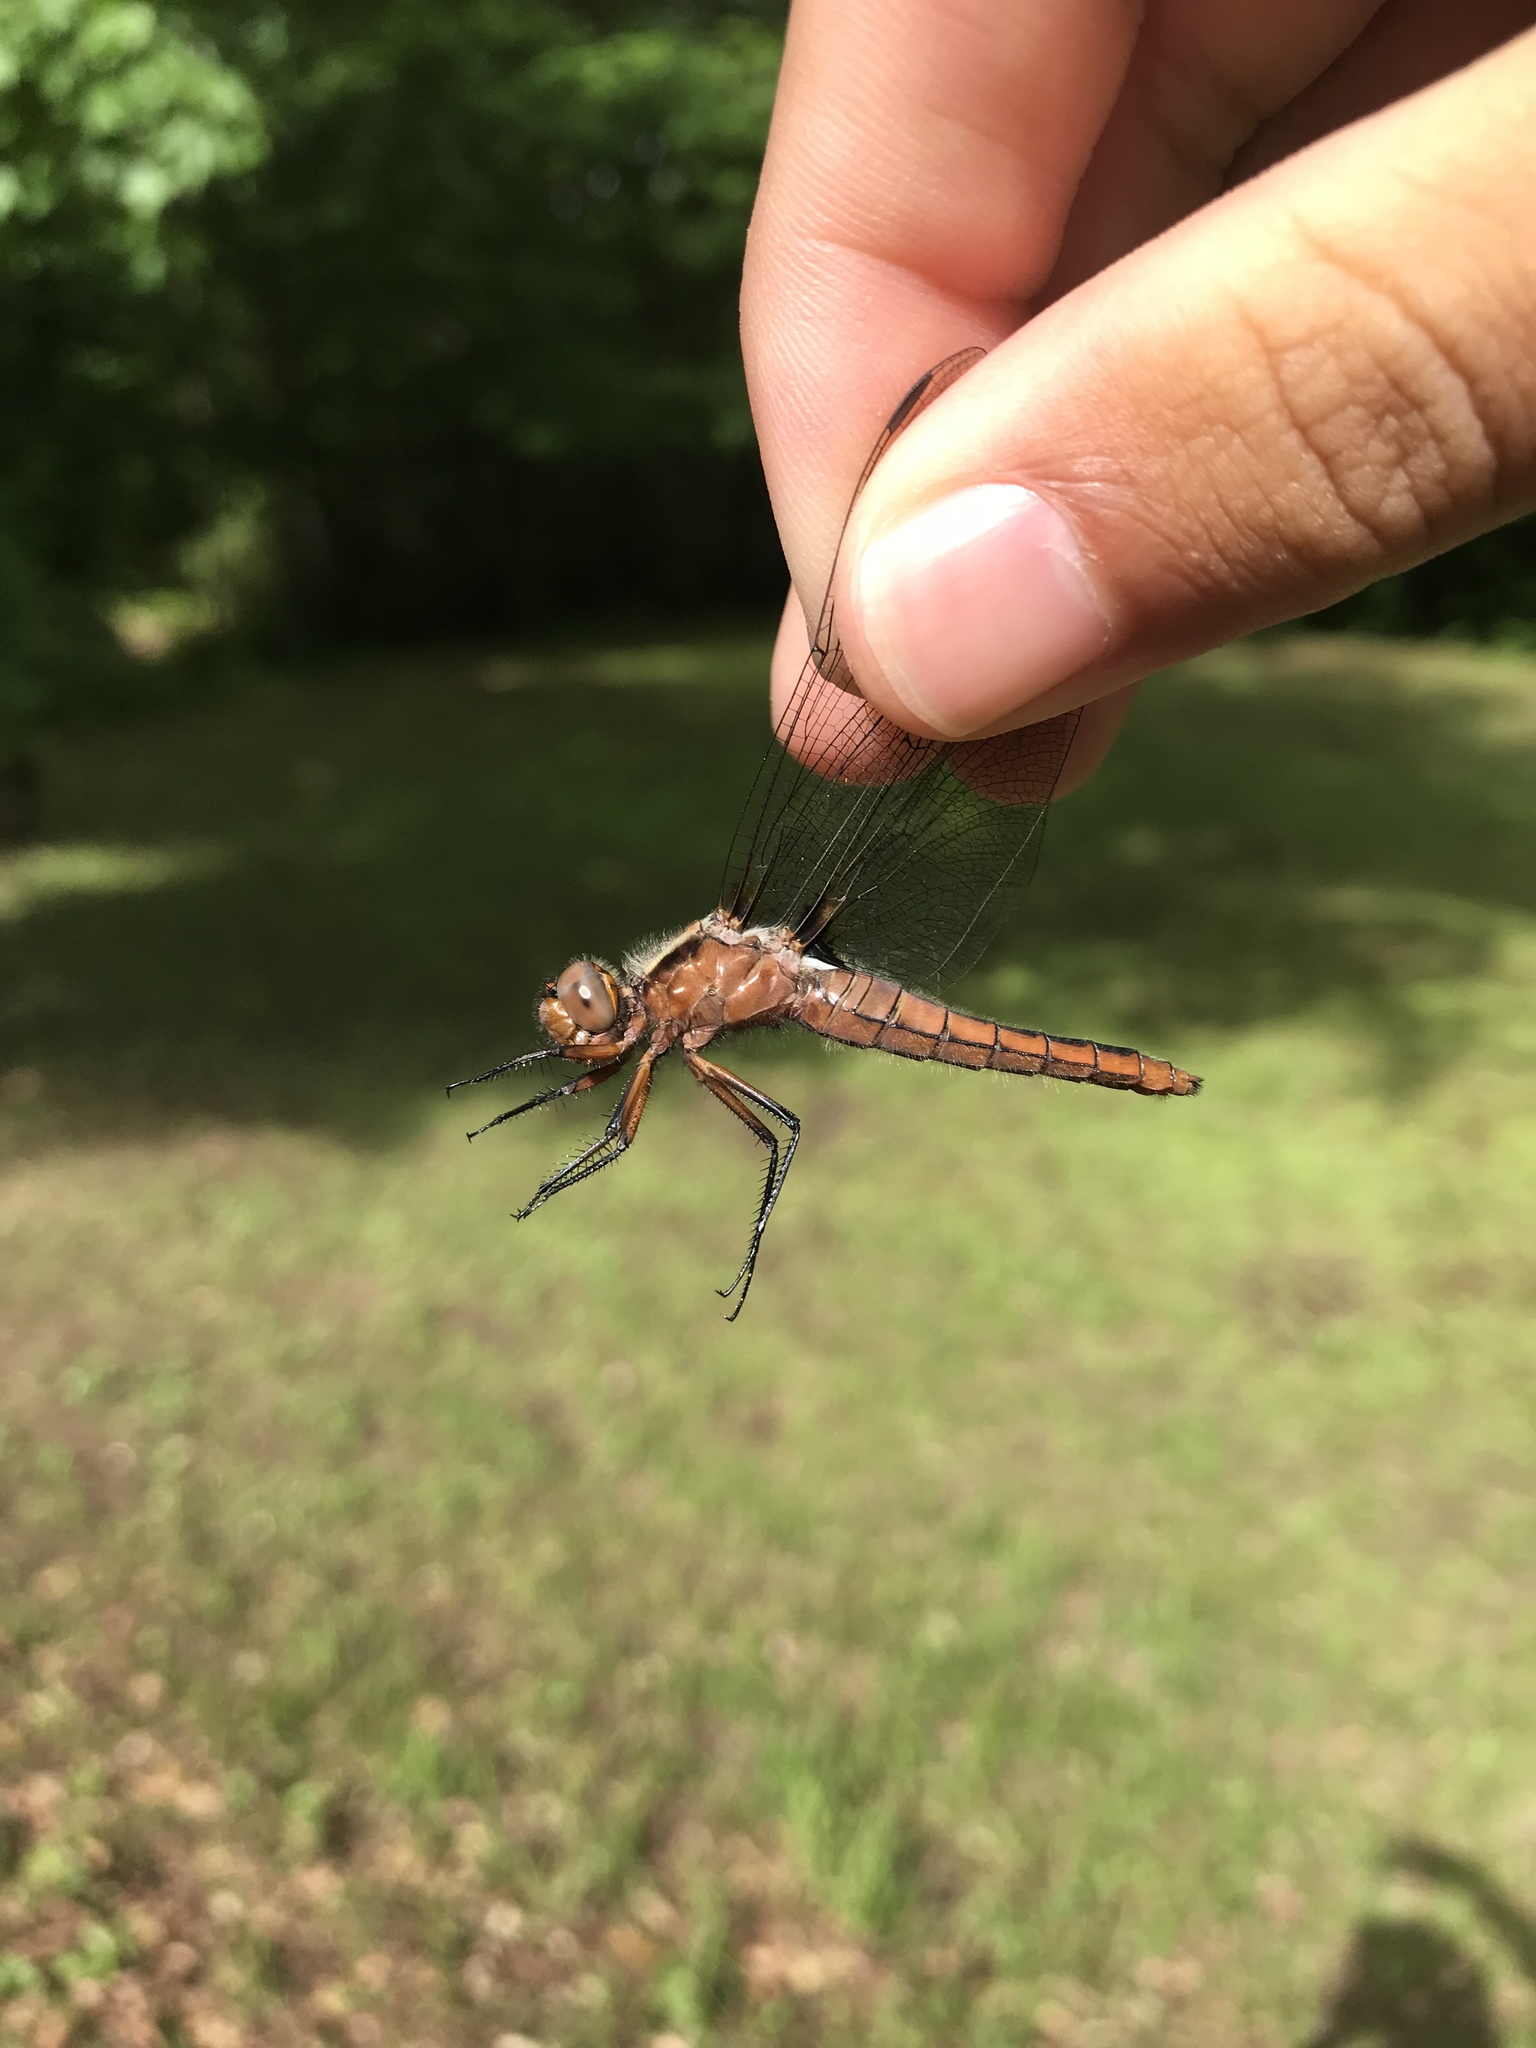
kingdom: Animalia
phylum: Arthropoda
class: Insecta
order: Odonata
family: Libellulidae
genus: Ladona
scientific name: Ladona julia
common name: Chalk-fronted corporal
